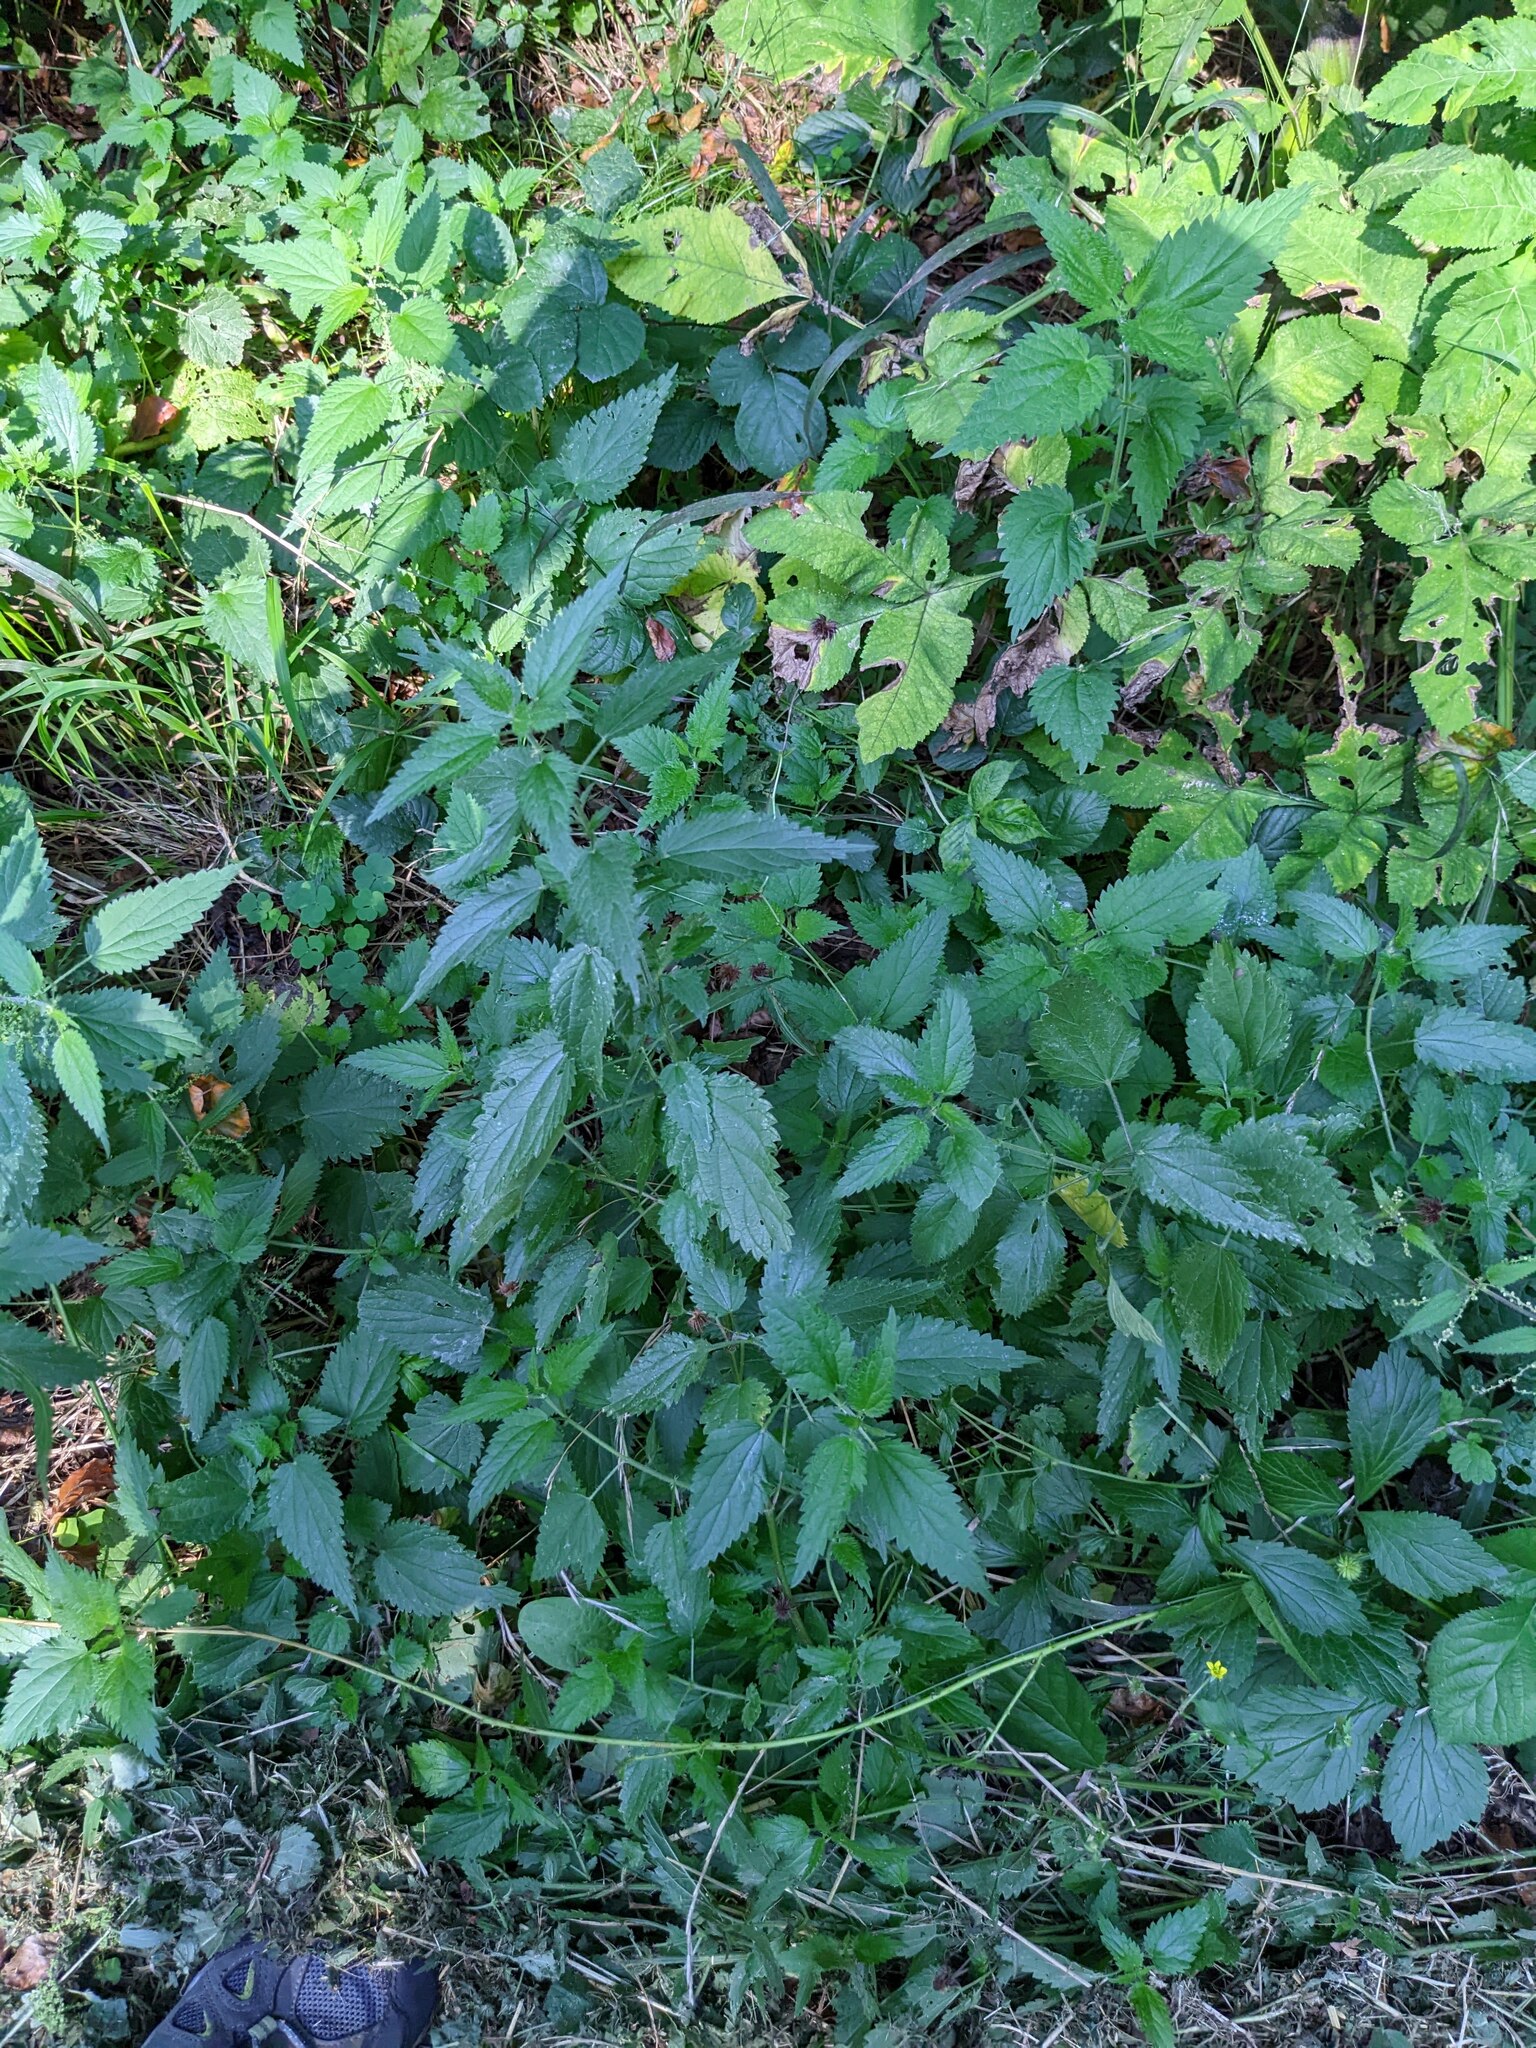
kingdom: Plantae
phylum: Tracheophyta
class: Magnoliopsida
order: Rosales
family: Urticaceae
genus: Urtica
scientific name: Urtica dioica
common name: Common nettle
